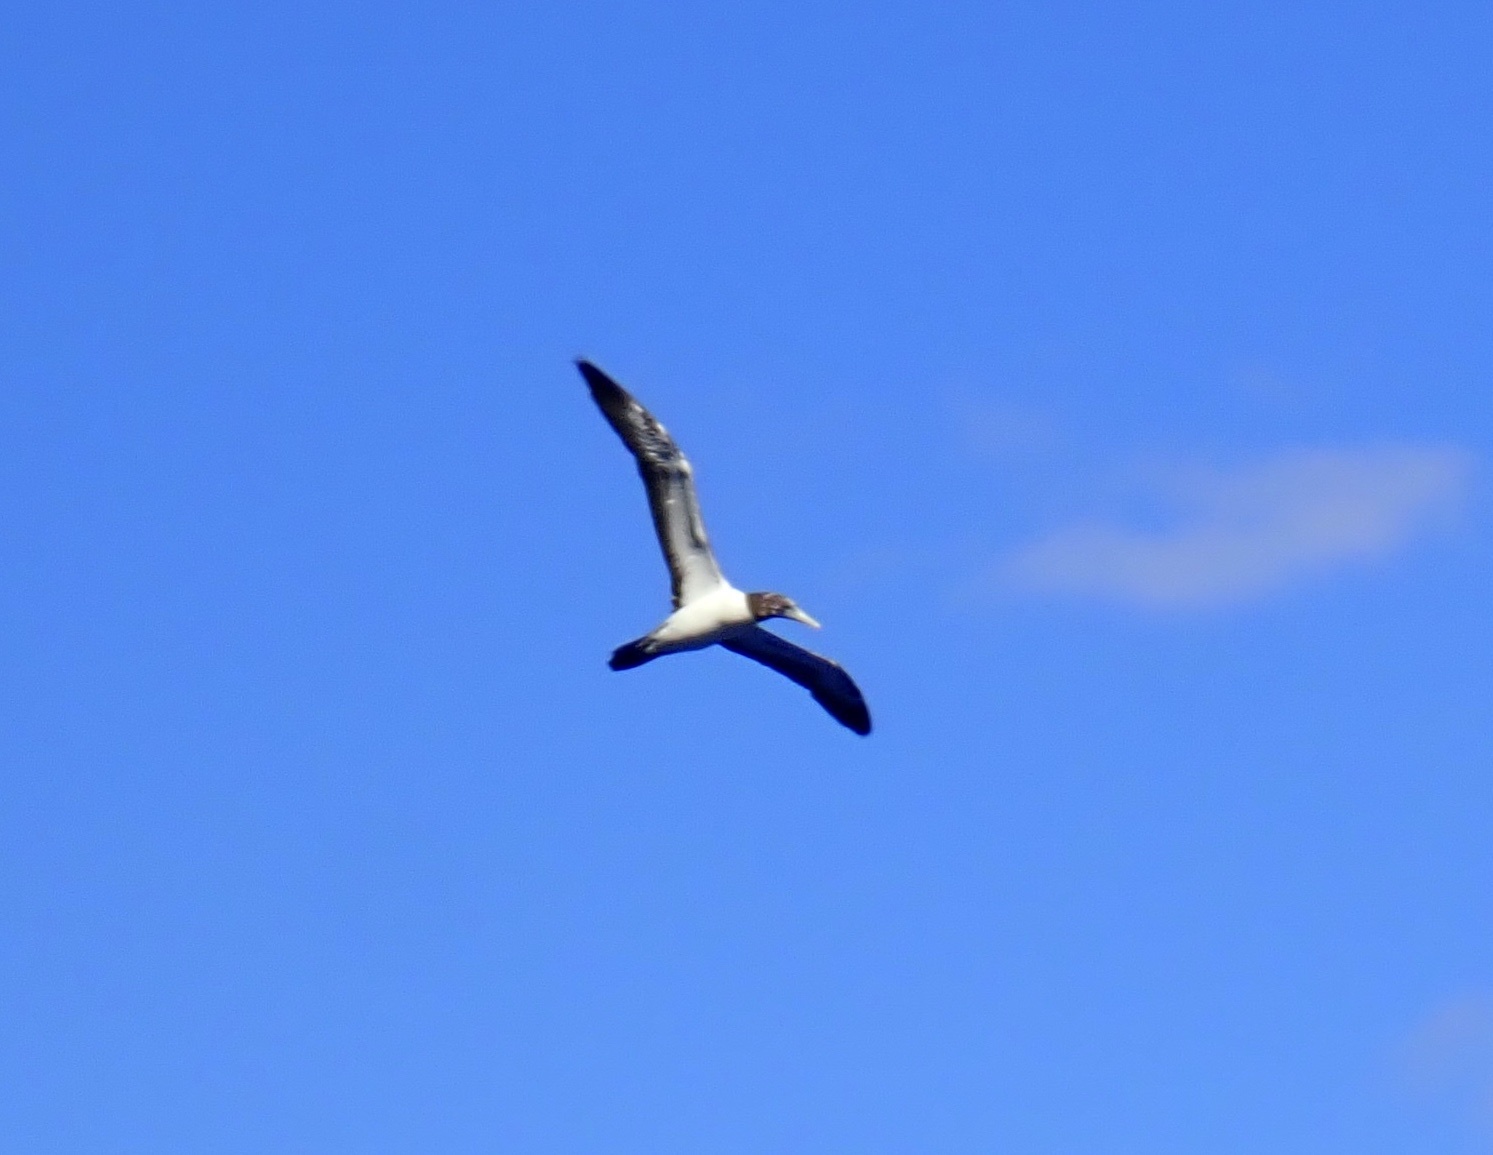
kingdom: Animalia
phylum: Chordata
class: Aves
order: Suliformes
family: Sulidae
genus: Sula
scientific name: Sula
